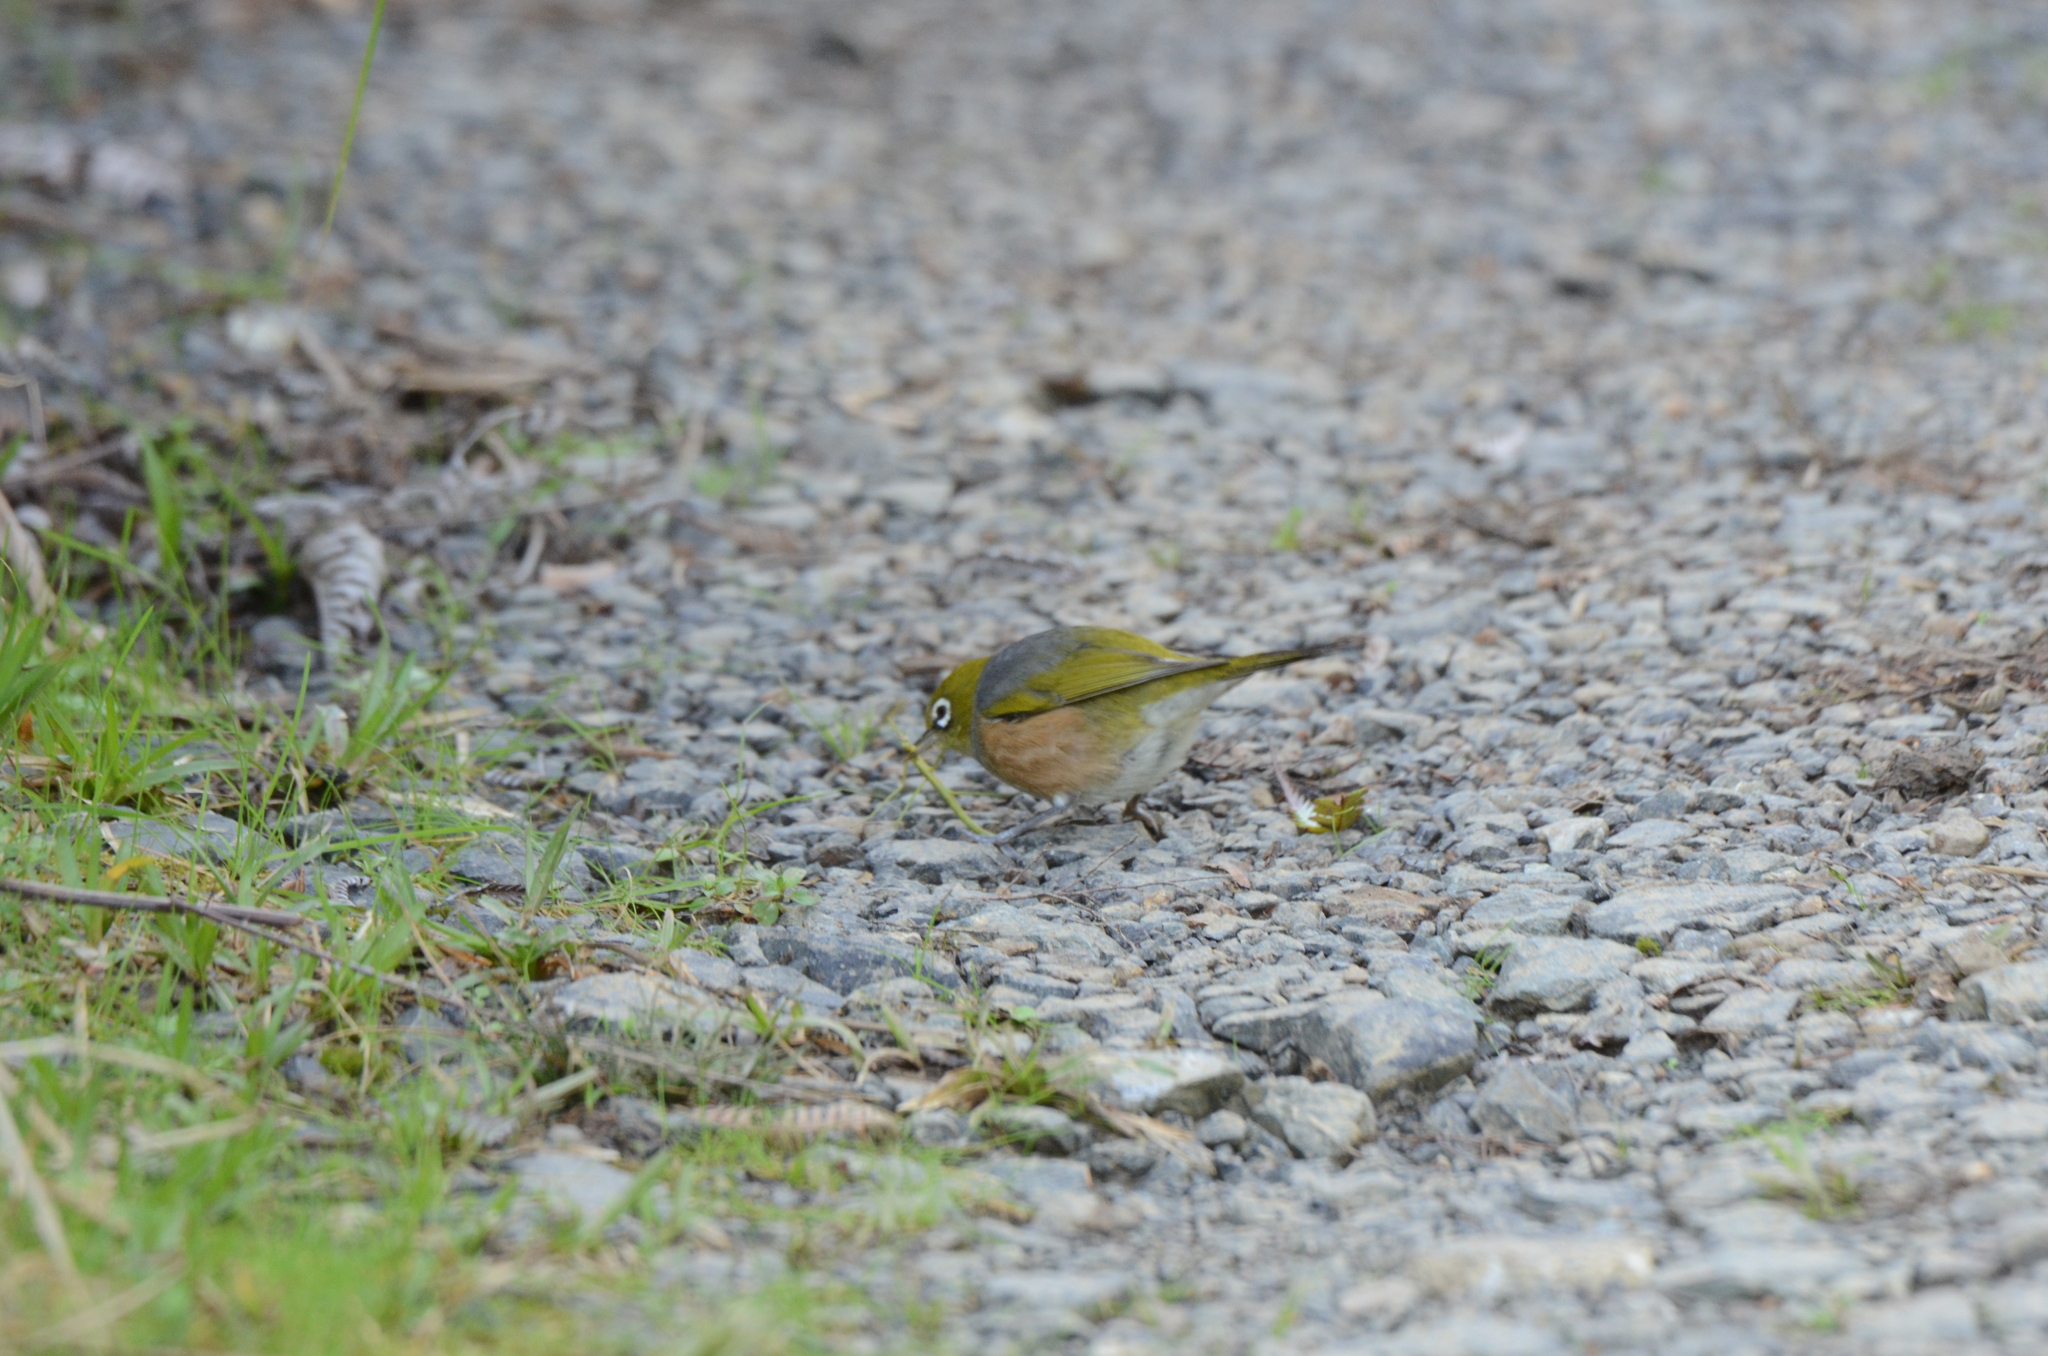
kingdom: Animalia
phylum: Chordata
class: Aves
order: Passeriformes
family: Zosteropidae
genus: Zosterops
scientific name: Zosterops lateralis
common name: Silvereye
